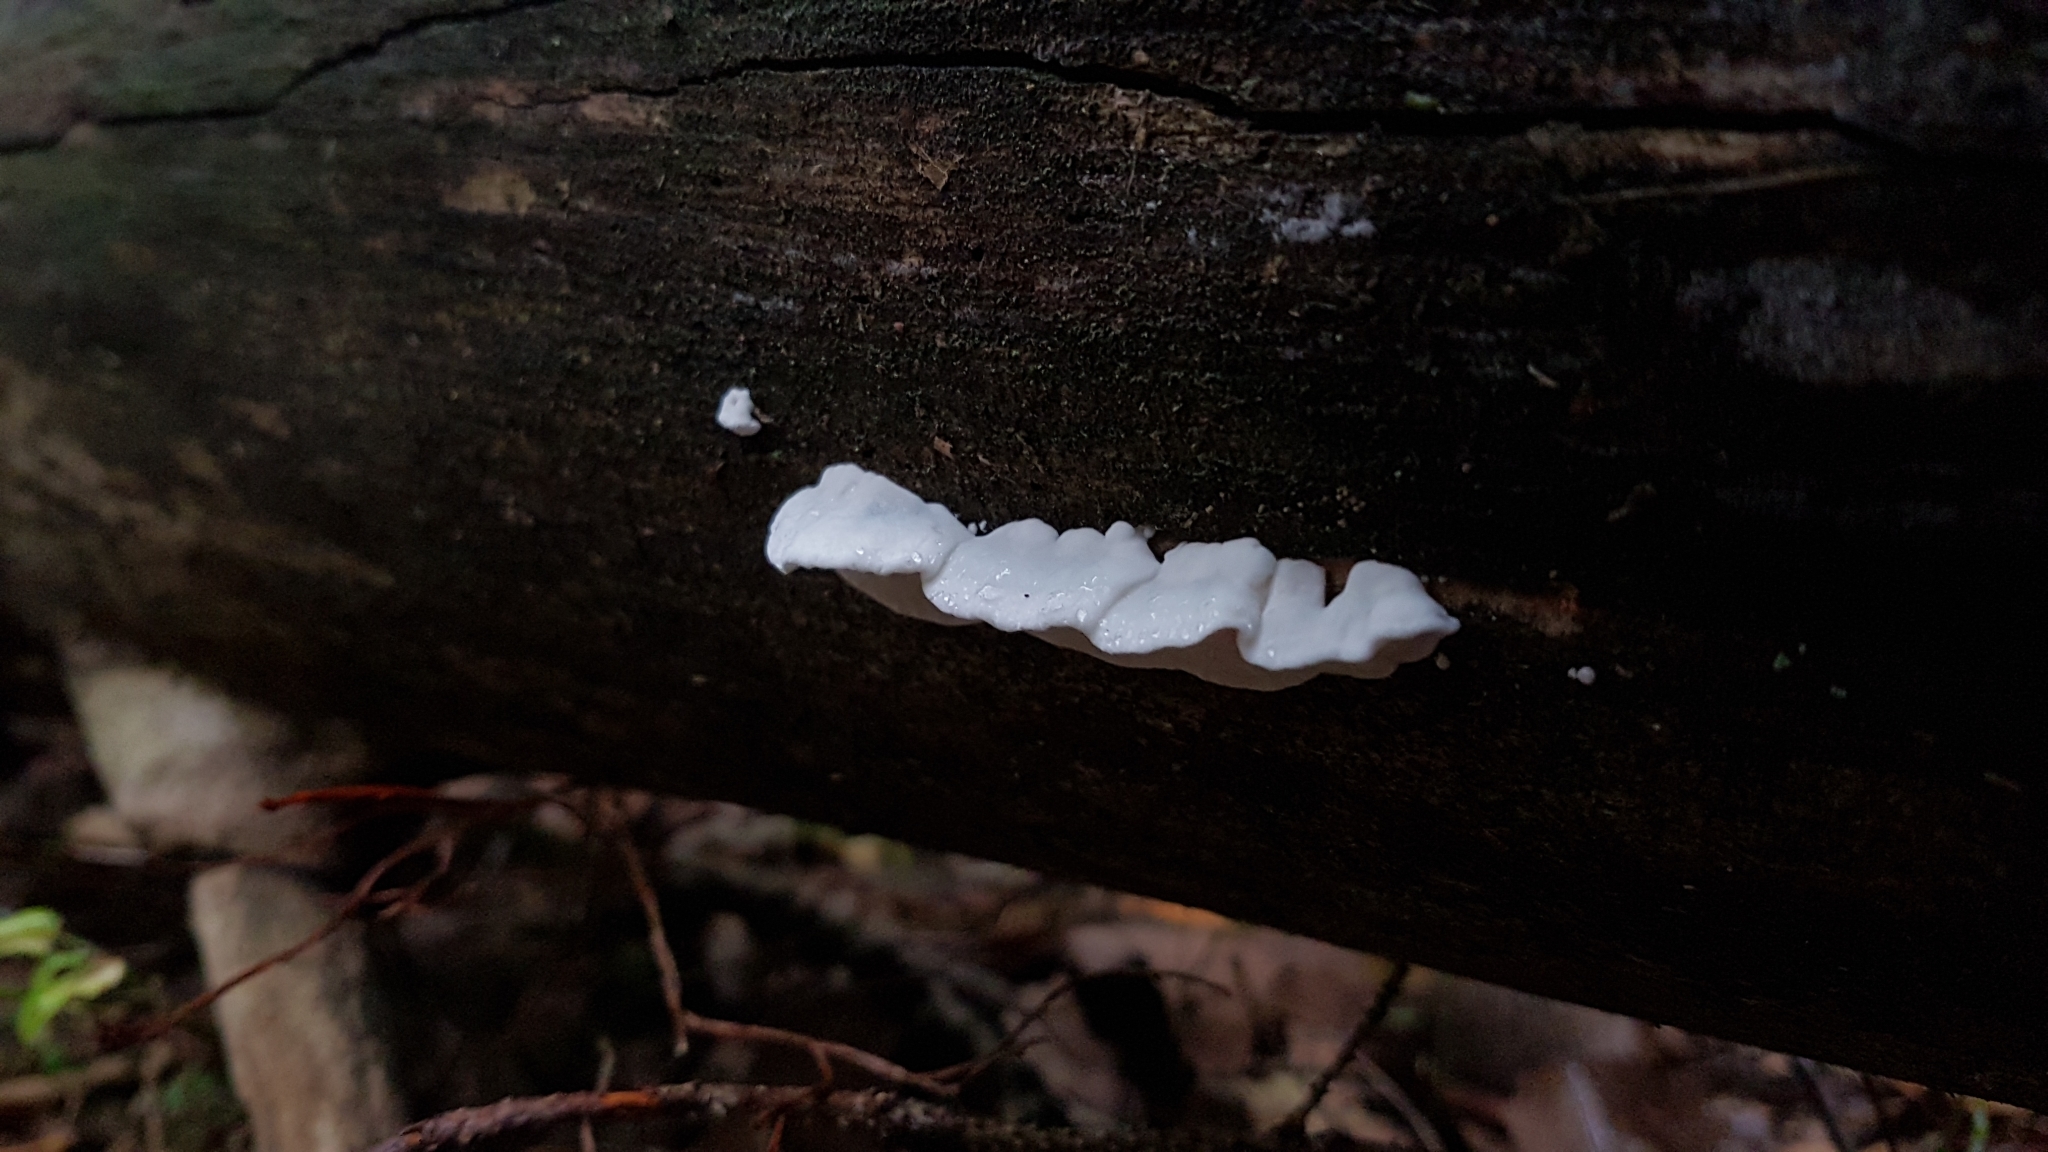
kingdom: Fungi
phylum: Basidiomycota
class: Agaricomycetes
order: Agaricales
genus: Plicatura
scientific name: Plicatura nivea
